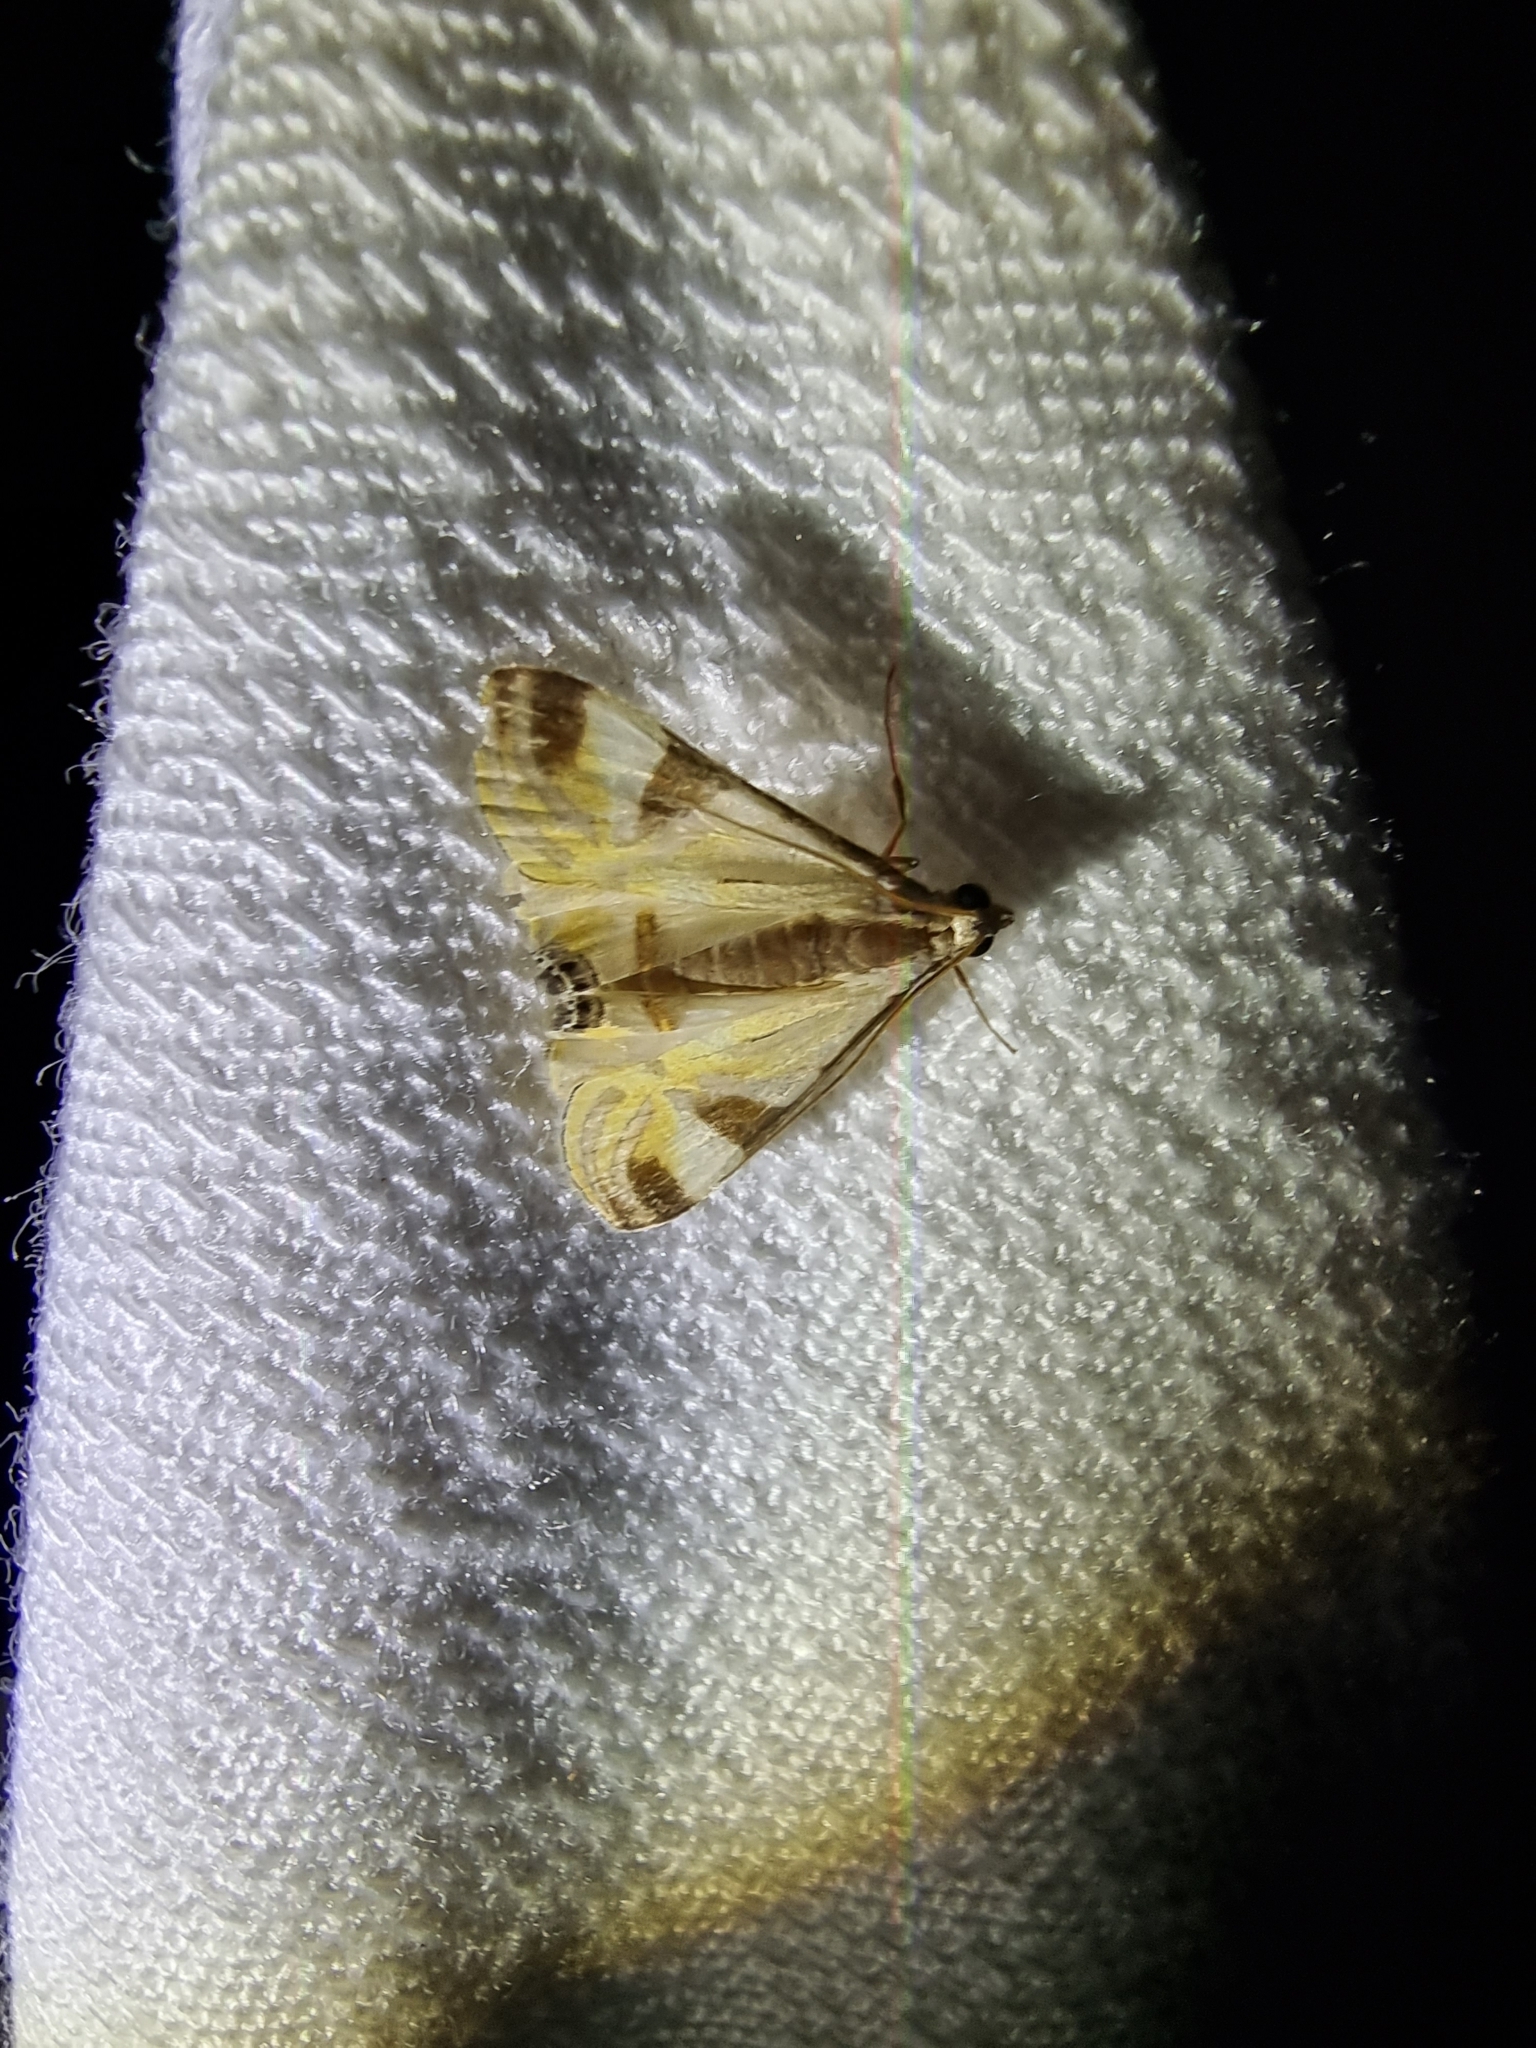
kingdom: Animalia
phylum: Arthropoda
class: Insecta
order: Lepidoptera
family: Crambidae
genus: Talanga
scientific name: Talanga tolumnialis
